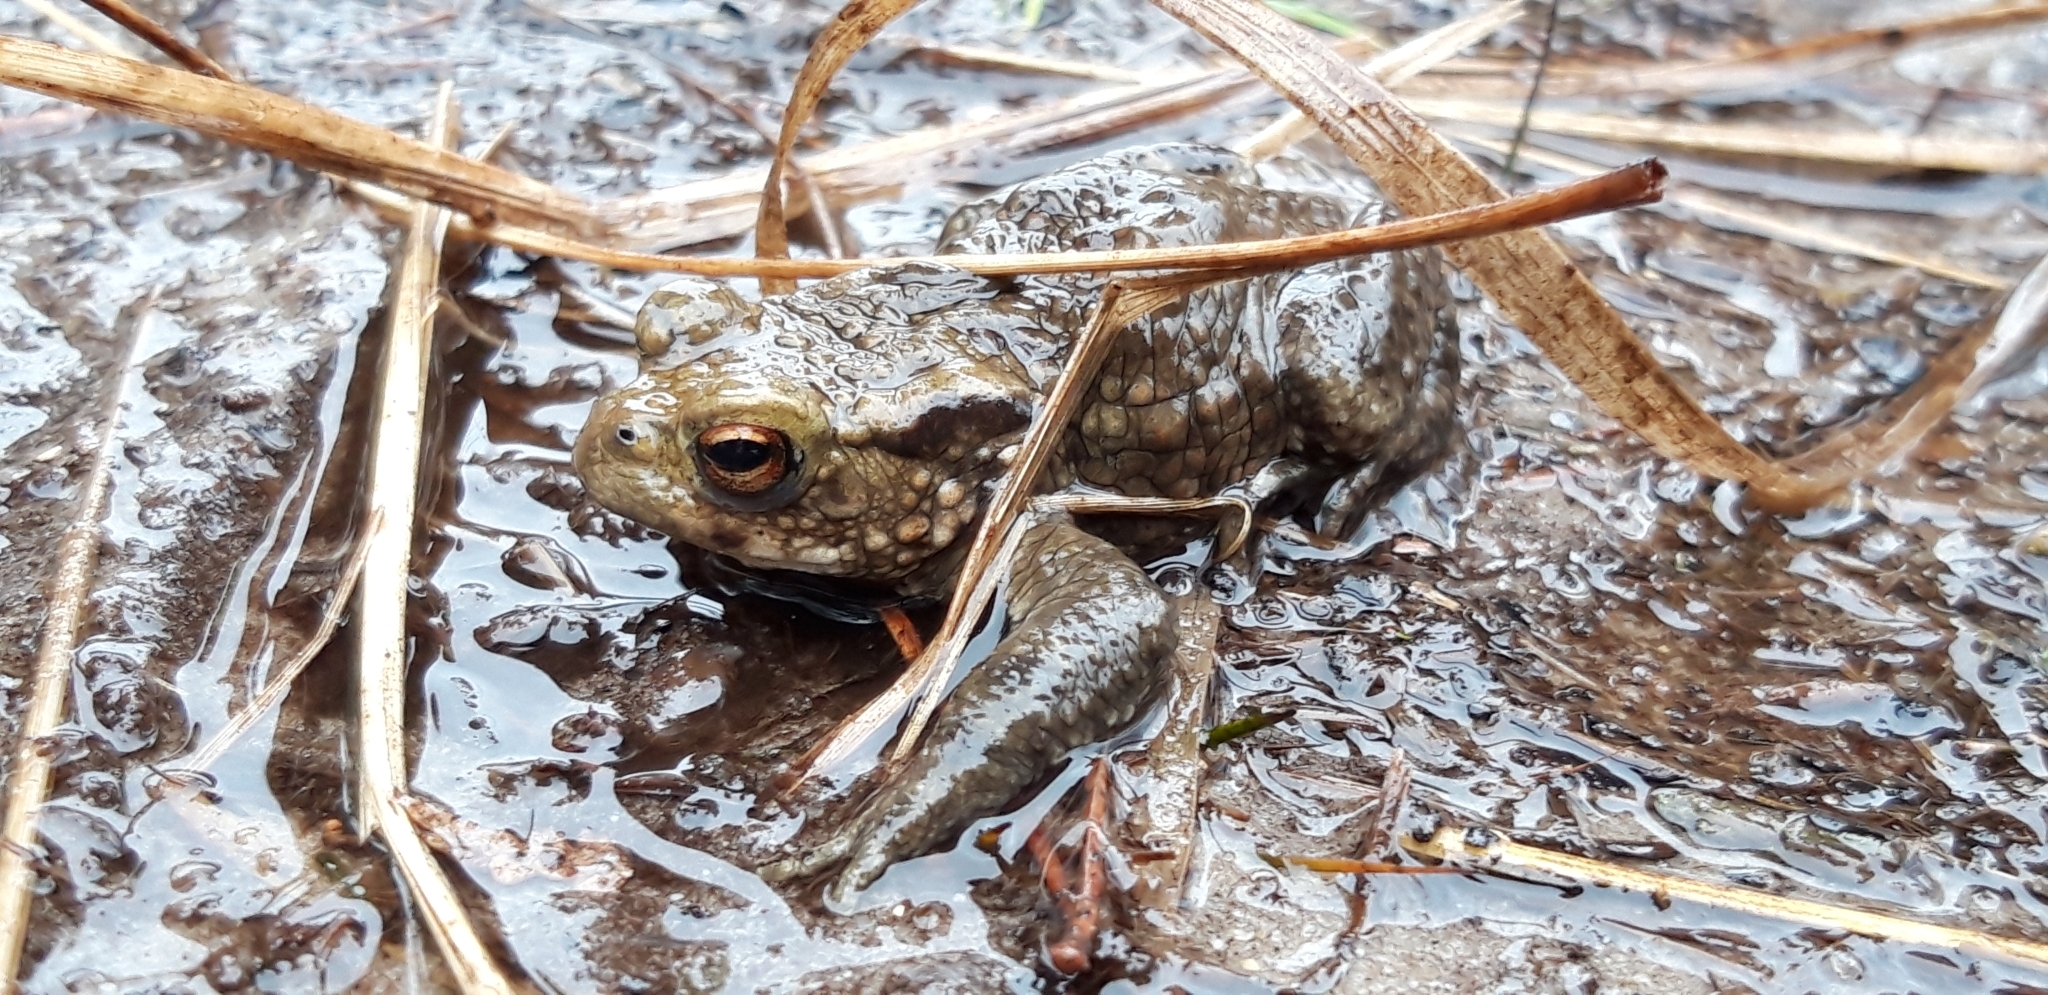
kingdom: Animalia
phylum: Chordata
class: Amphibia
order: Anura
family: Bufonidae
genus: Bufo
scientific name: Bufo bufo
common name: Common toad
